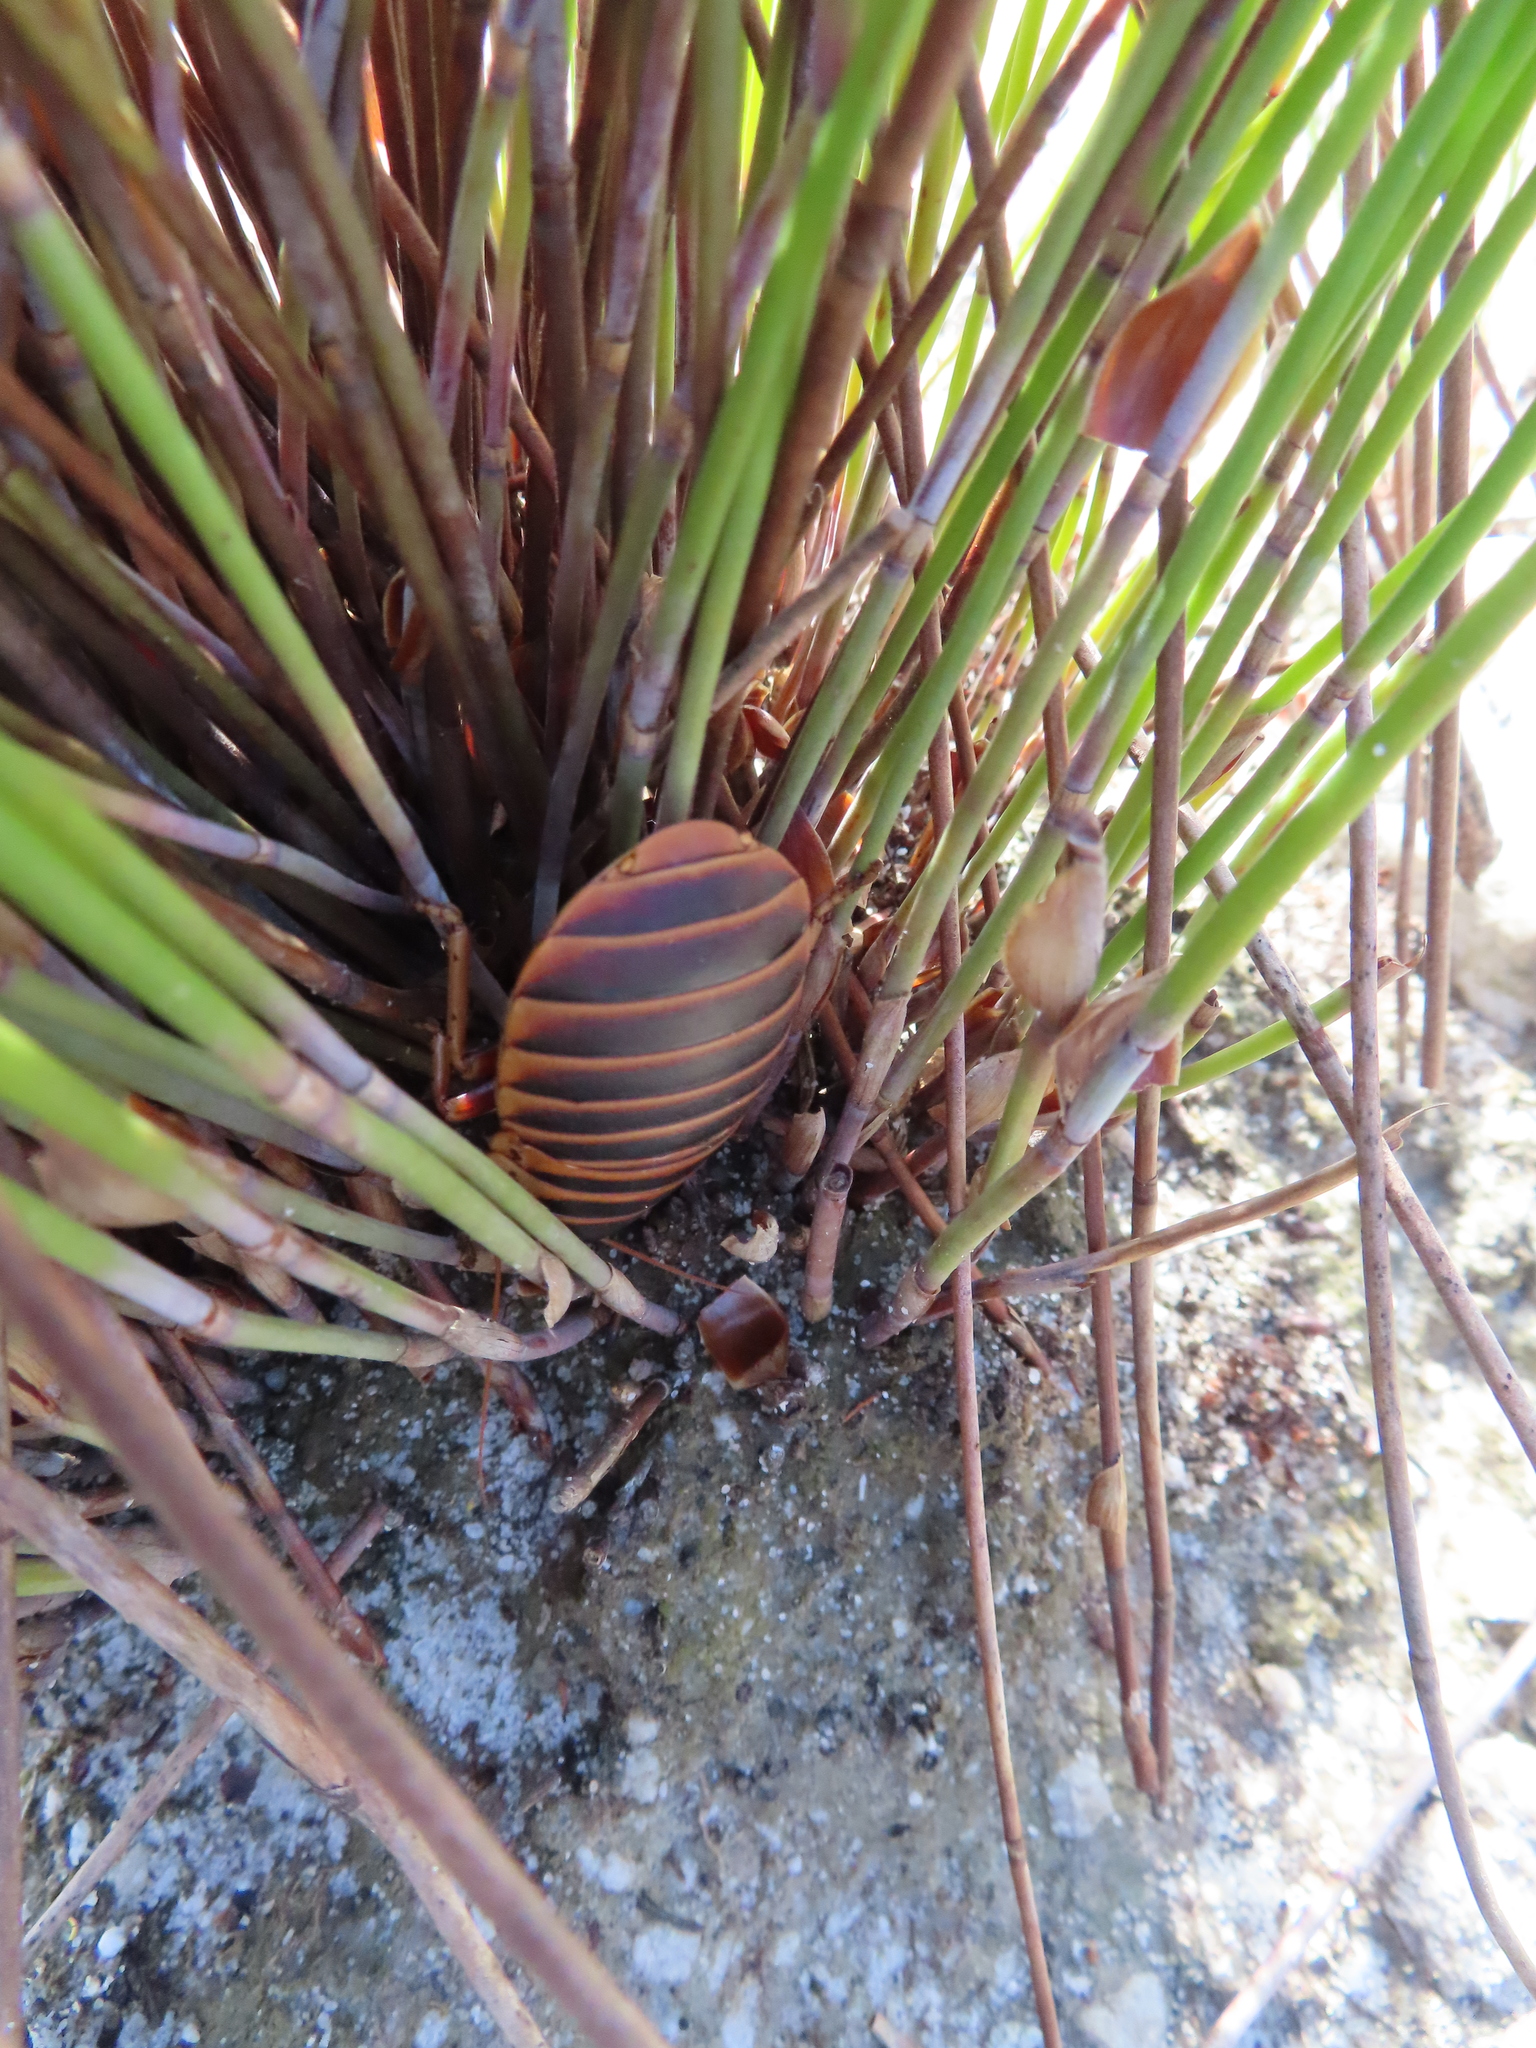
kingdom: Animalia
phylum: Arthropoda
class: Insecta
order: Blattodea
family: Blaberidae
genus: Aptera
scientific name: Aptera fusca
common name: Cape mountain cockroach
